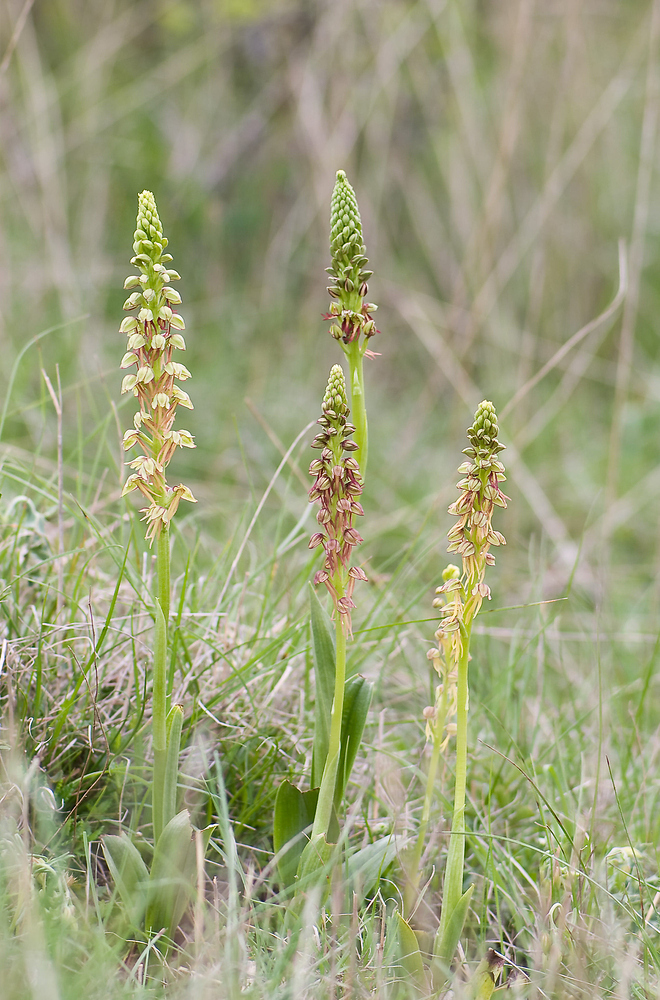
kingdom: Plantae
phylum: Tracheophyta
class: Liliopsida
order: Asparagales
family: Orchidaceae
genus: Orchis
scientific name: Orchis anthropophora
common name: Man orchid
